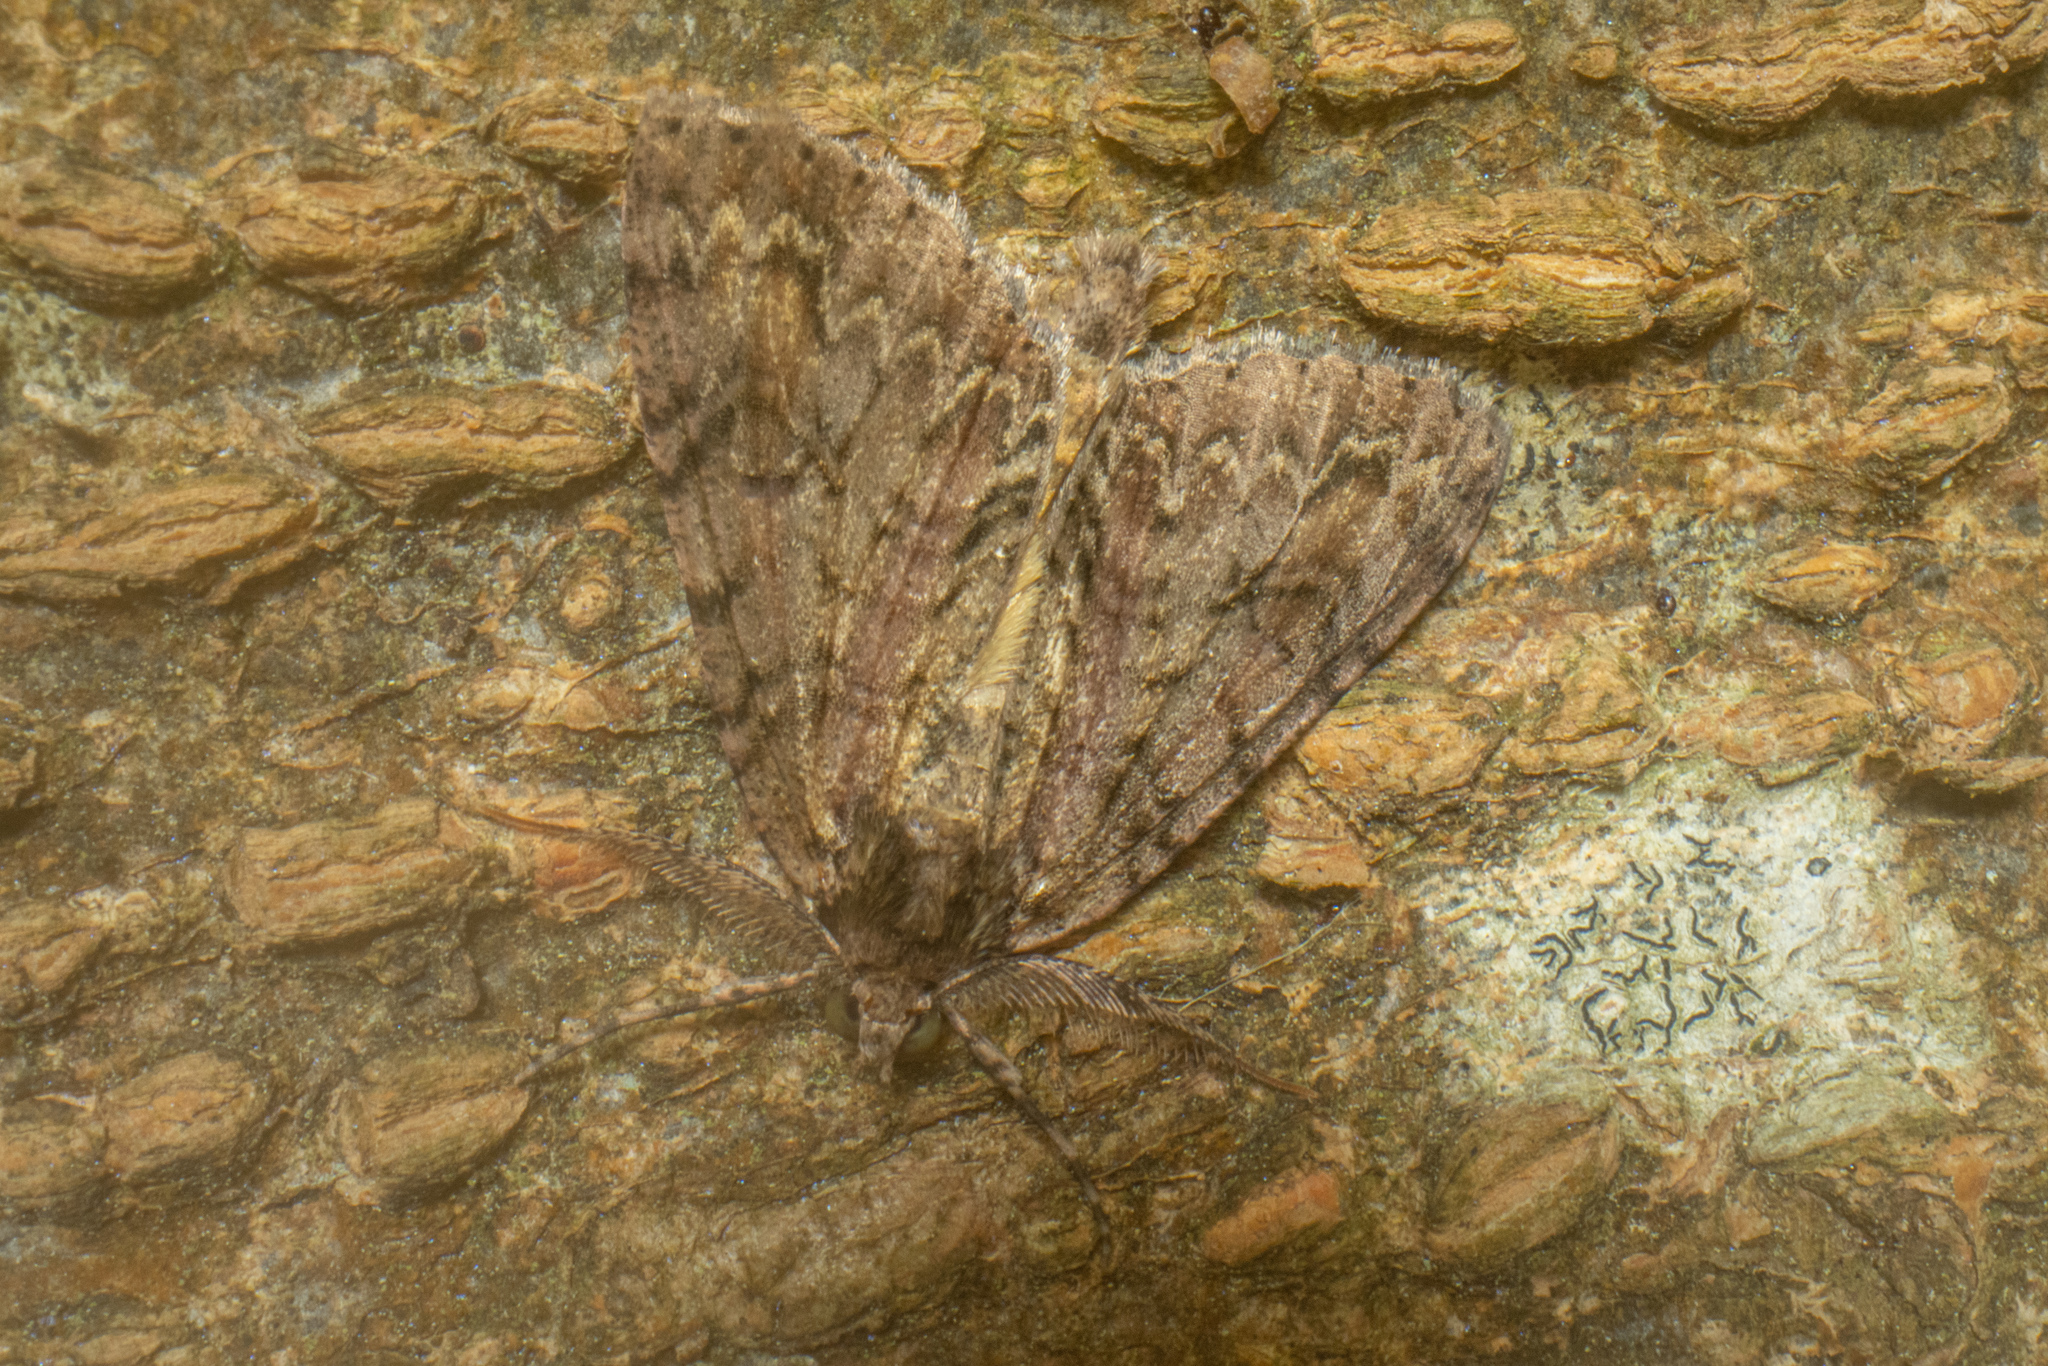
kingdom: Animalia
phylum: Arthropoda
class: Insecta
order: Lepidoptera
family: Geometridae
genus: Pseudocoremia
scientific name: Pseudocoremia suavis
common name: Common forest looper
